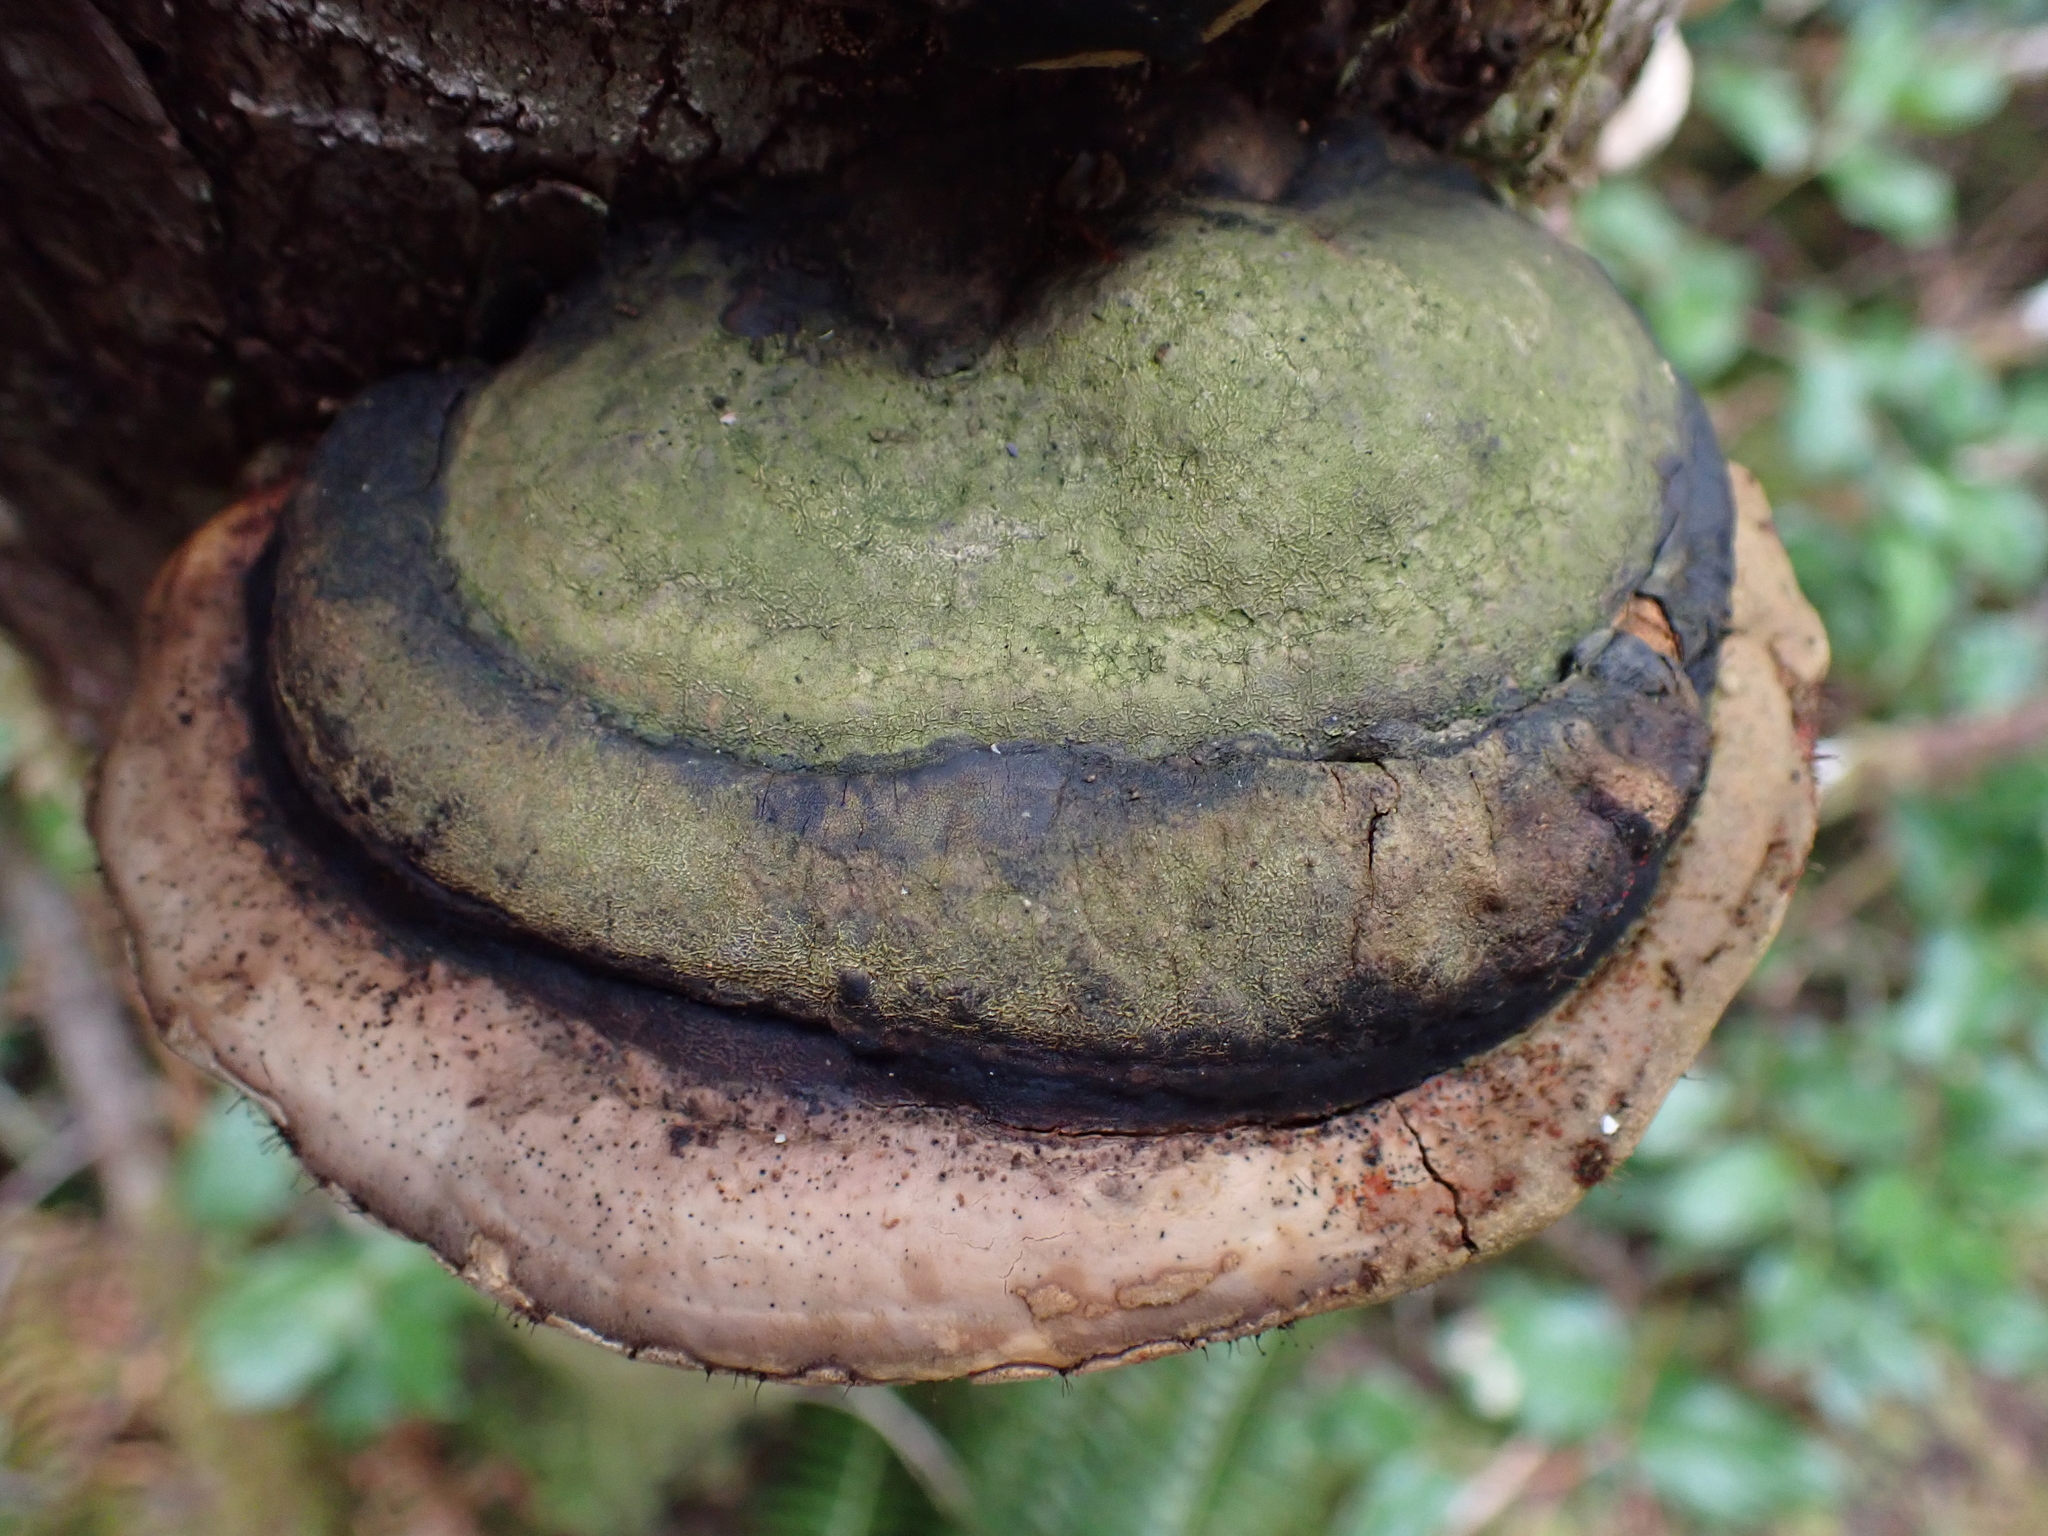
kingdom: Fungi
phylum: Basidiomycota
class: Agaricomycetes
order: Polyporales
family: Fomitopsidaceae
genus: Fomitopsis
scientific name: Fomitopsis mounceae
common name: Northern red belt
